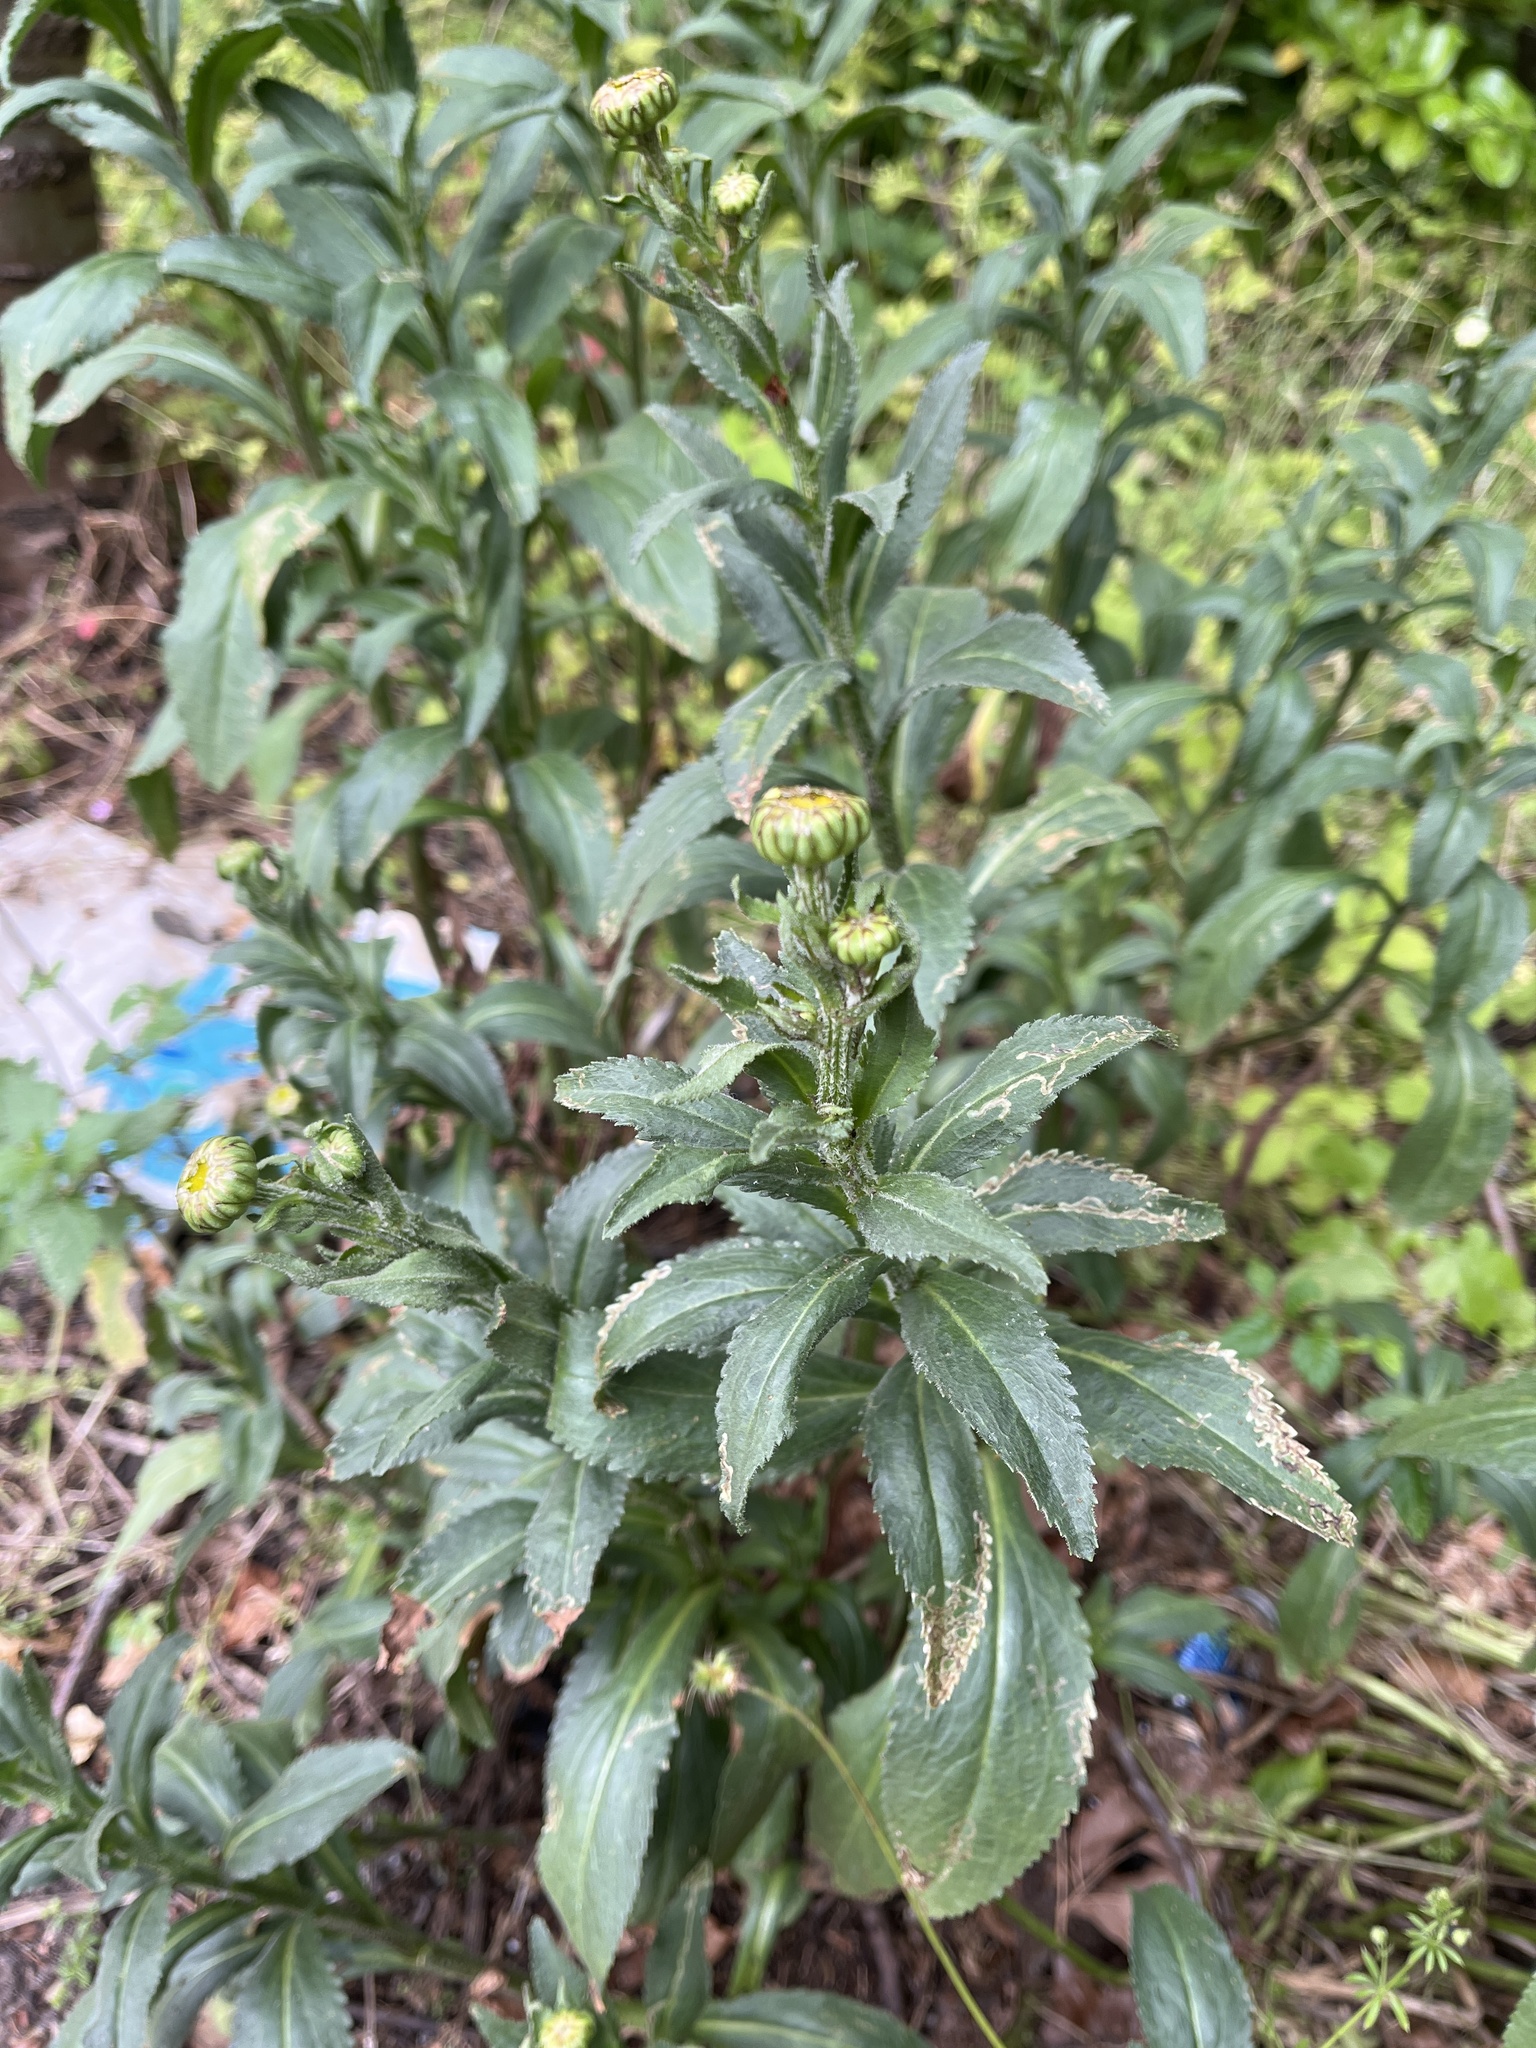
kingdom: Plantae
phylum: Tracheophyta
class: Magnoliopsida
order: Asterales
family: Asteraceae
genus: Leucanthemum
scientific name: Leucanthemum superbum
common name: Shasta daisy
